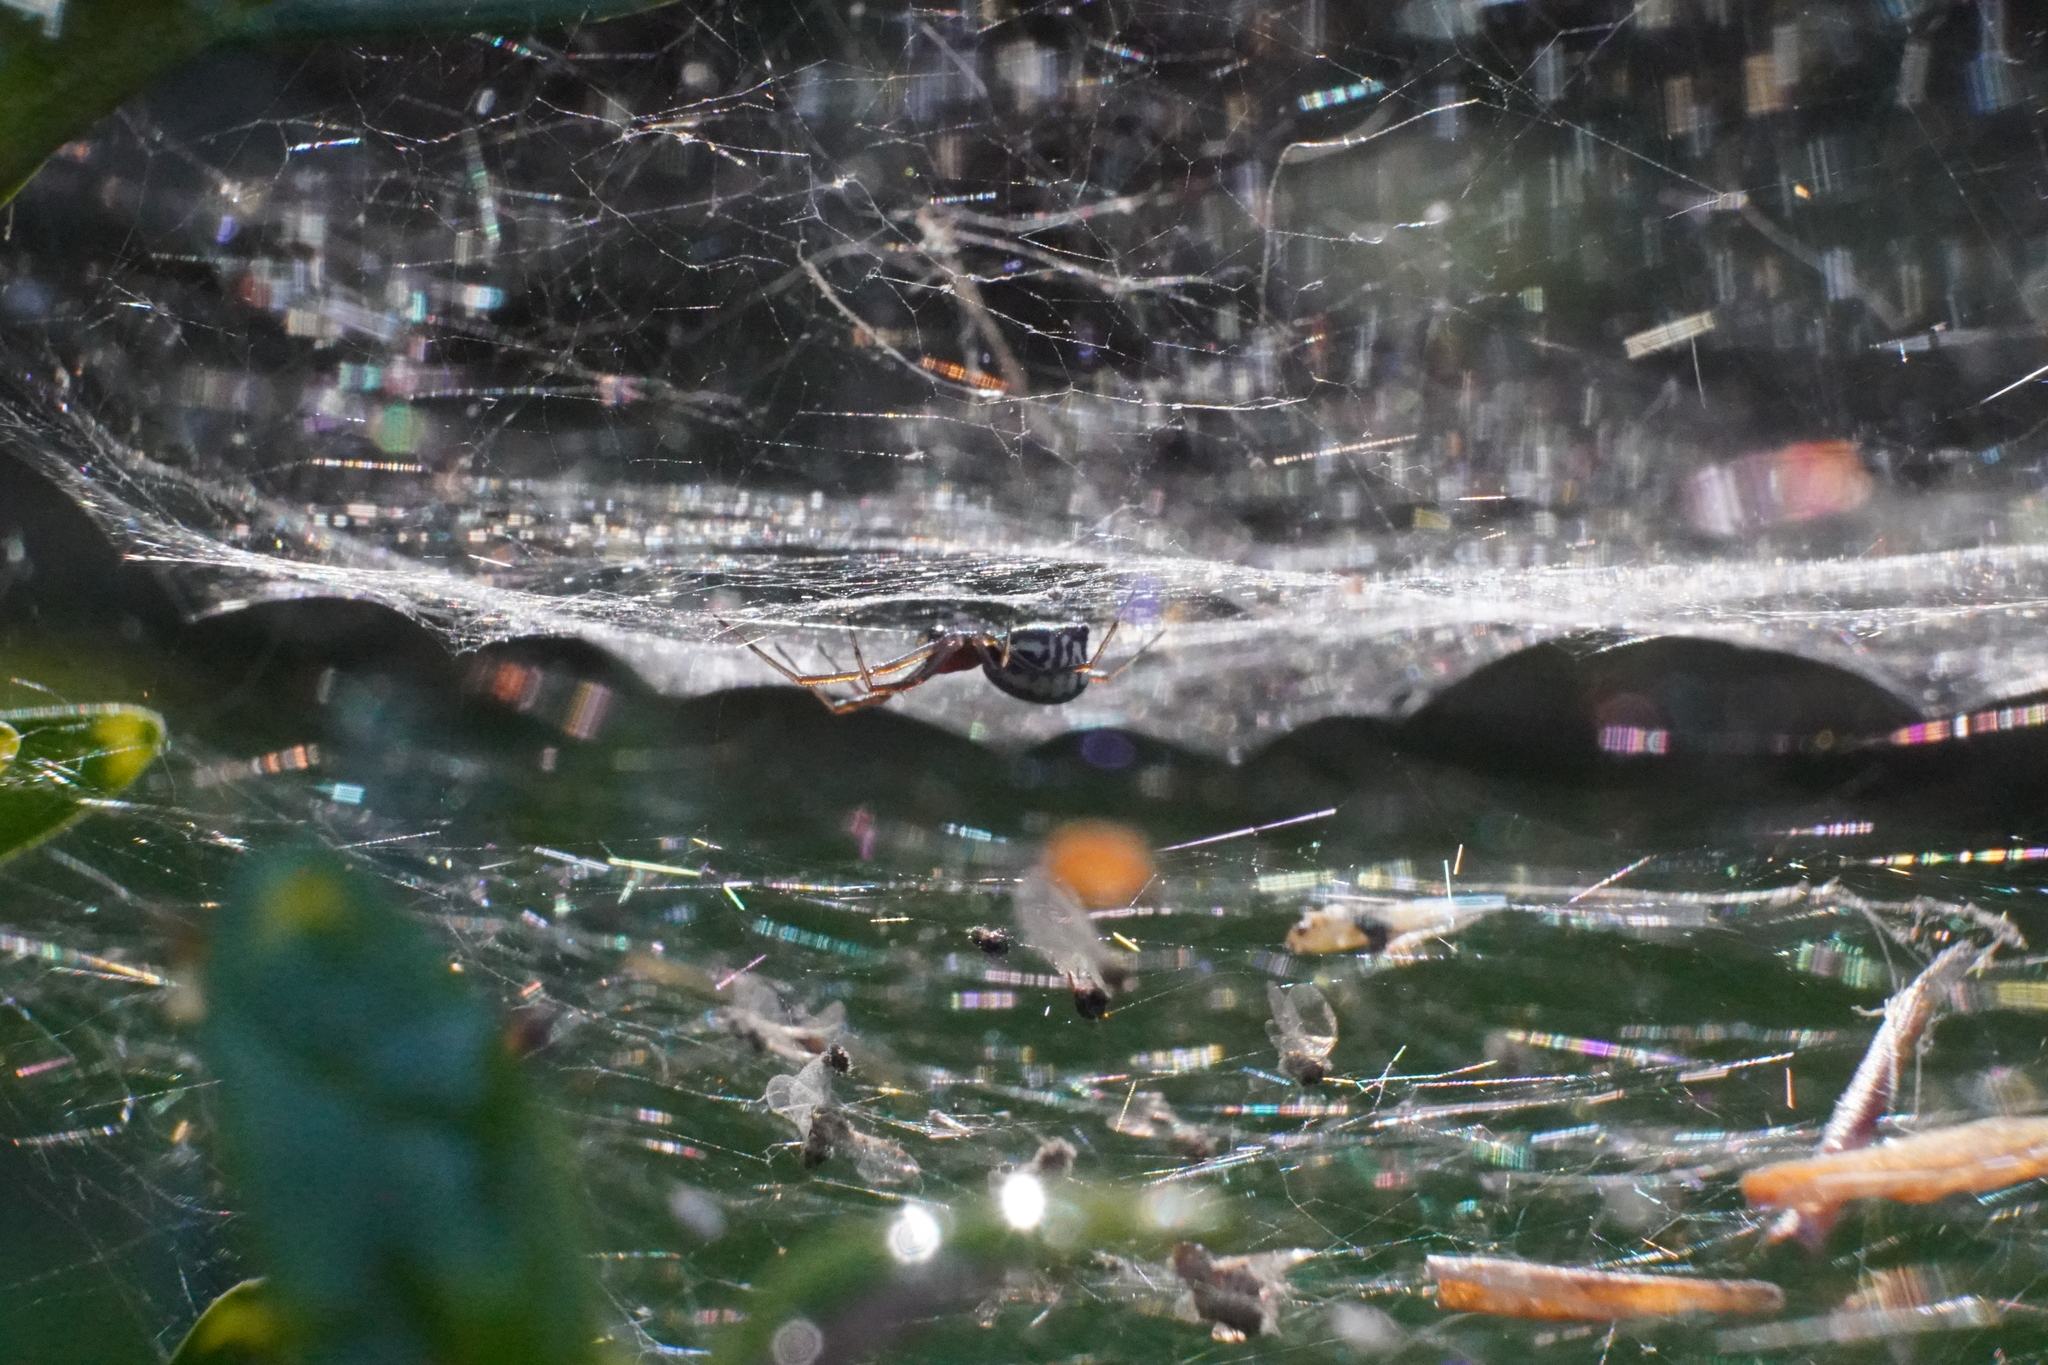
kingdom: Animalia
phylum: Arthropoda
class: Arachnida
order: Araneae
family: Linyphiidae
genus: Frontinella
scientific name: Frontinella pyramitela
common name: Bowl-and-doily spider
